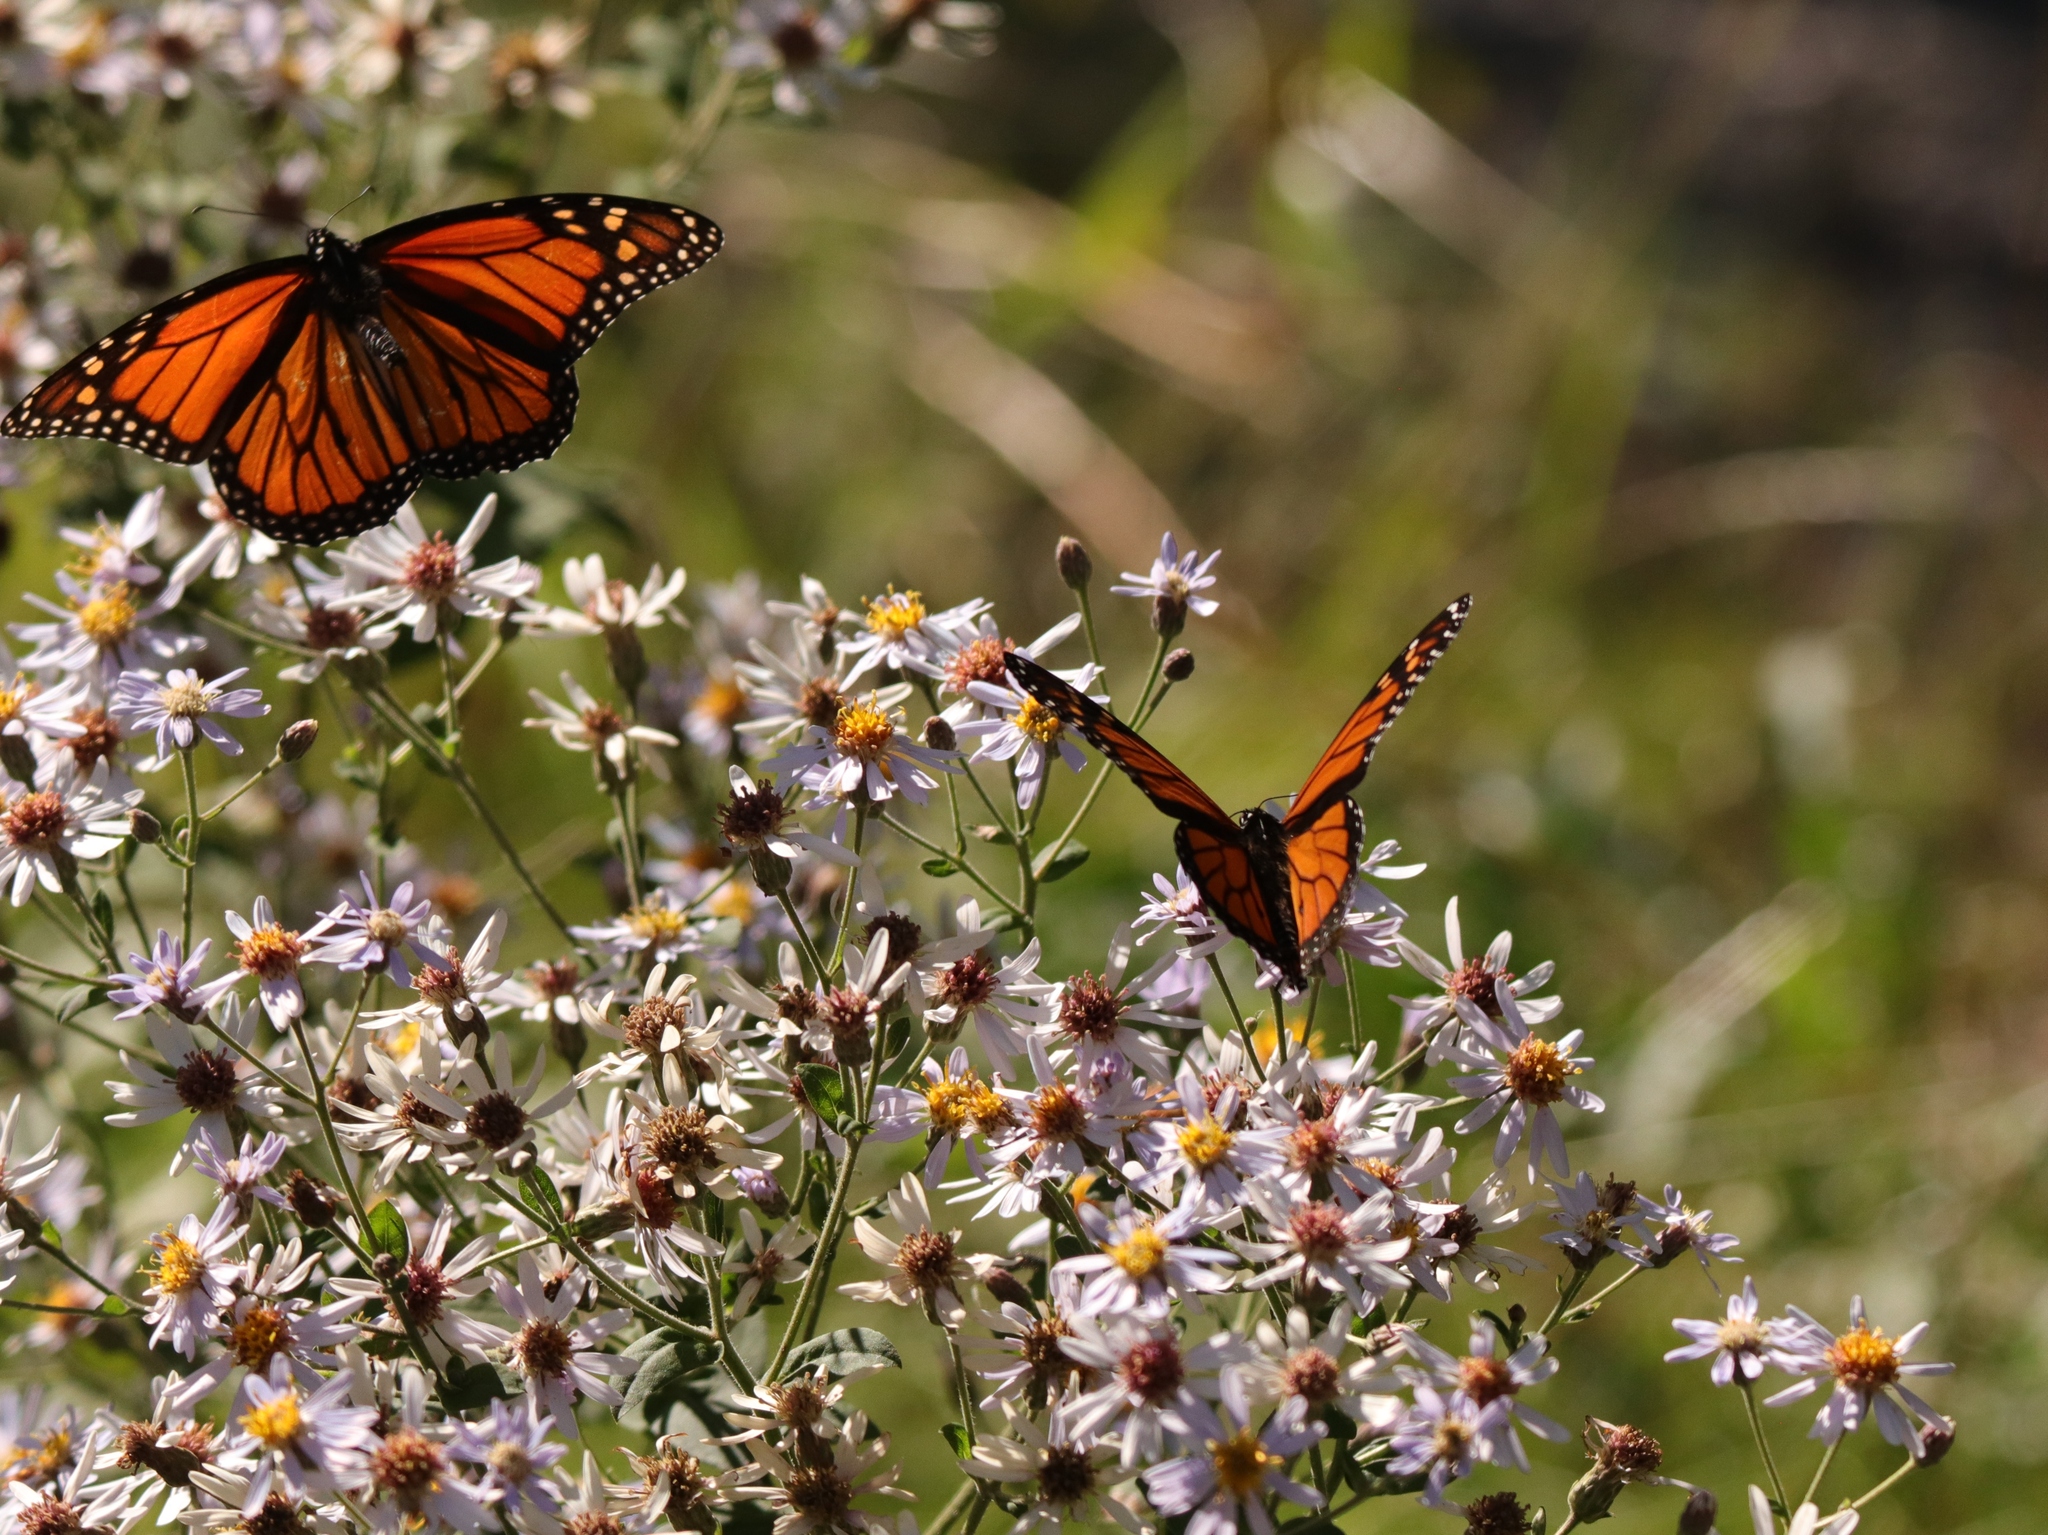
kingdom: Animalia
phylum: Arthropoda
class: Insecta
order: Lepidoptera
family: Nymphalidae
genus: Danaus
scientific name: Danaus plexippus
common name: Monarch
